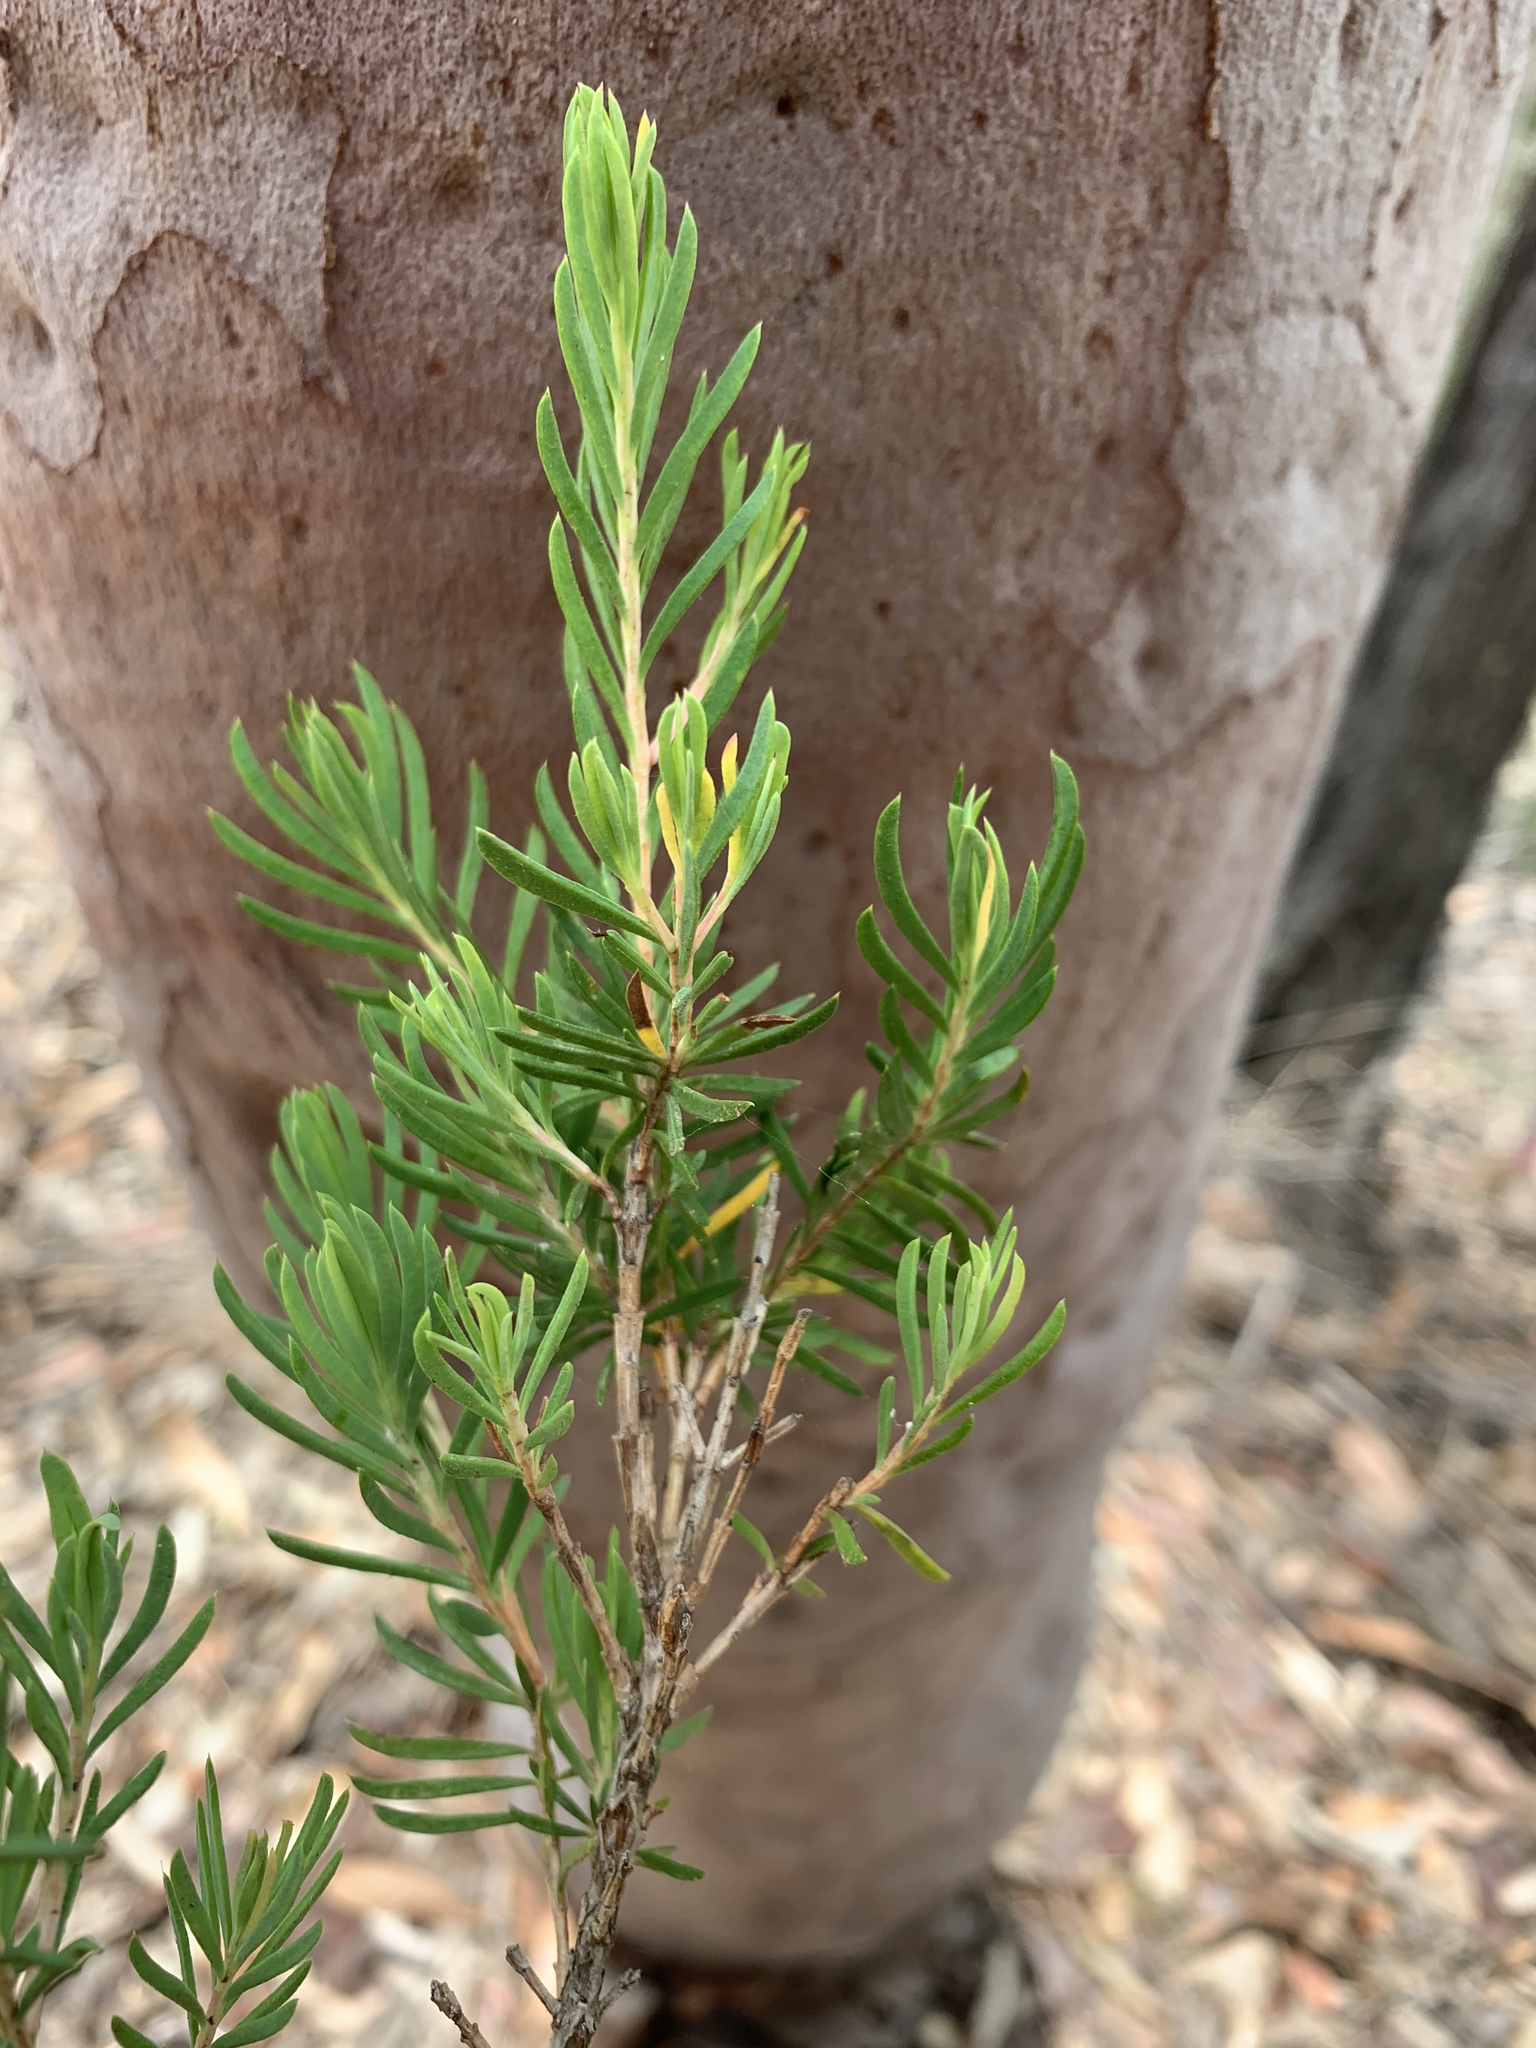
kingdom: Plantae
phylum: Tracheophyta
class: Magnoliopsida
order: Myrtales
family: Myrtaceae
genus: Darwinia
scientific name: Darwinia procera
